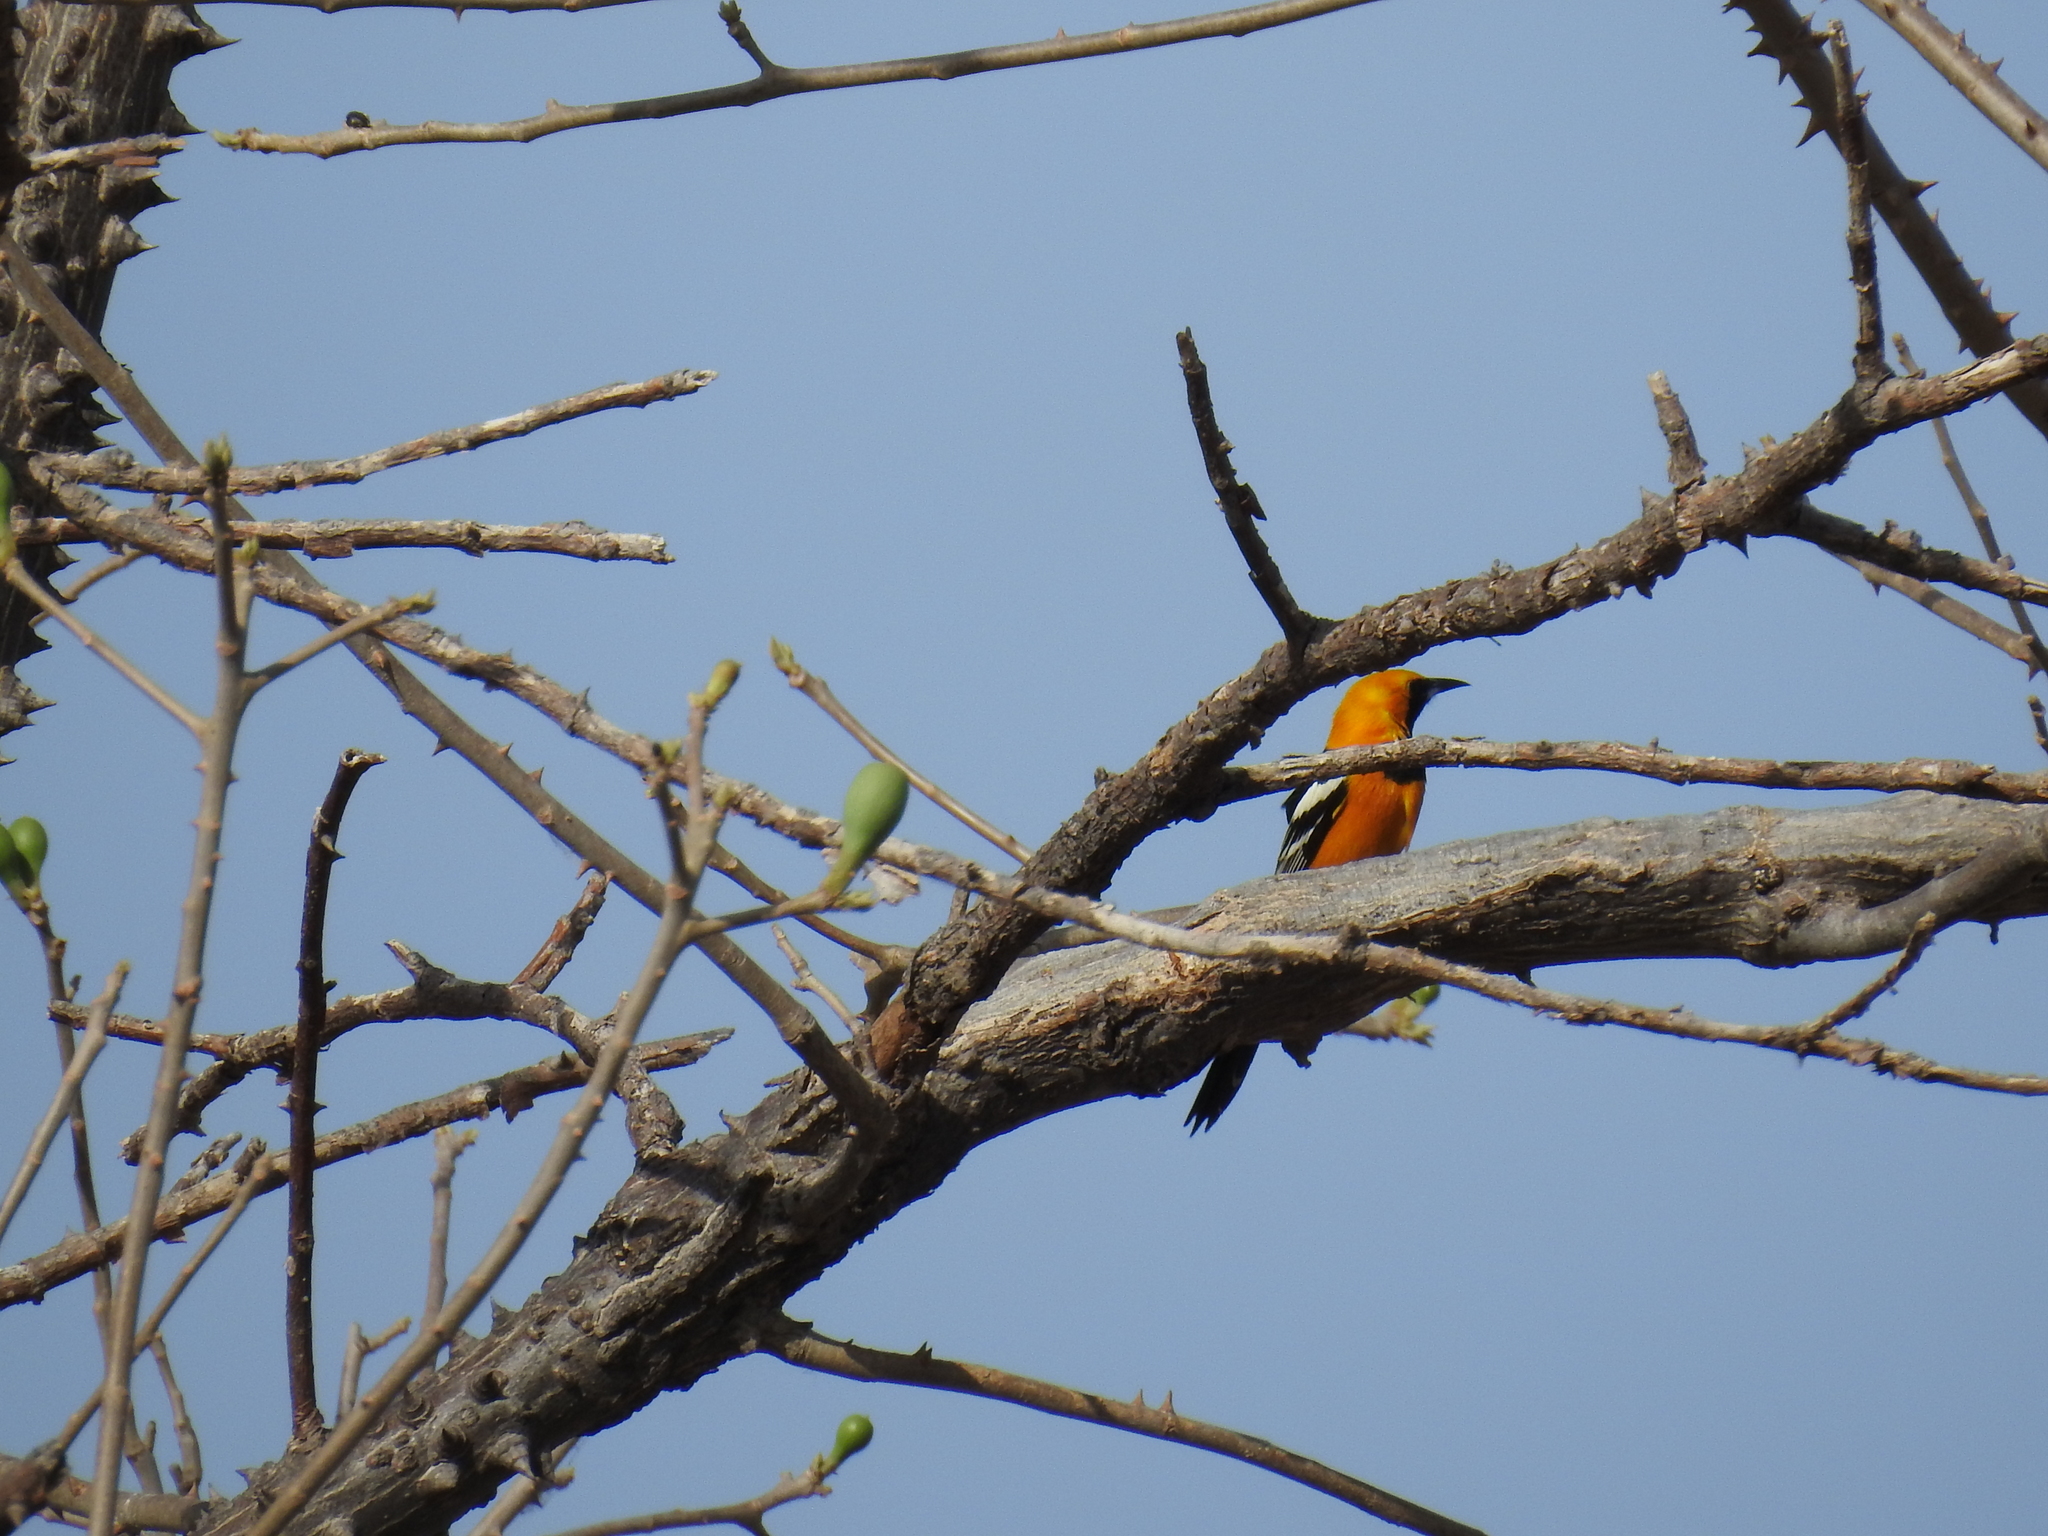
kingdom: Animalia
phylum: Chordata
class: Aves
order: Passeriformes
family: Icteridae
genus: Icterus
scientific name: Icterus cucullatus
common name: Hooded oriole
